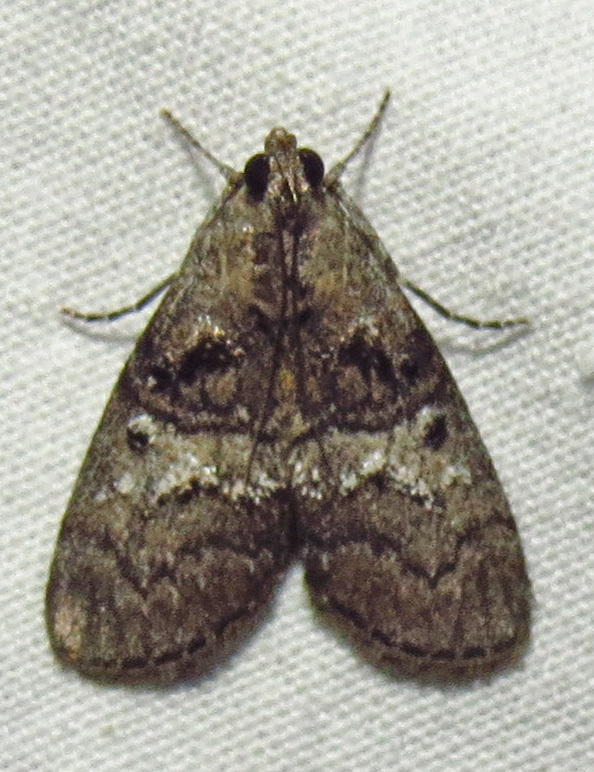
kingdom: Animalia
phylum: Arthropoda
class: Insecta
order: Lepidoptera
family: Pyralidae
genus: Pococera
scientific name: Pococera asperatella
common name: Maple webworm moth
